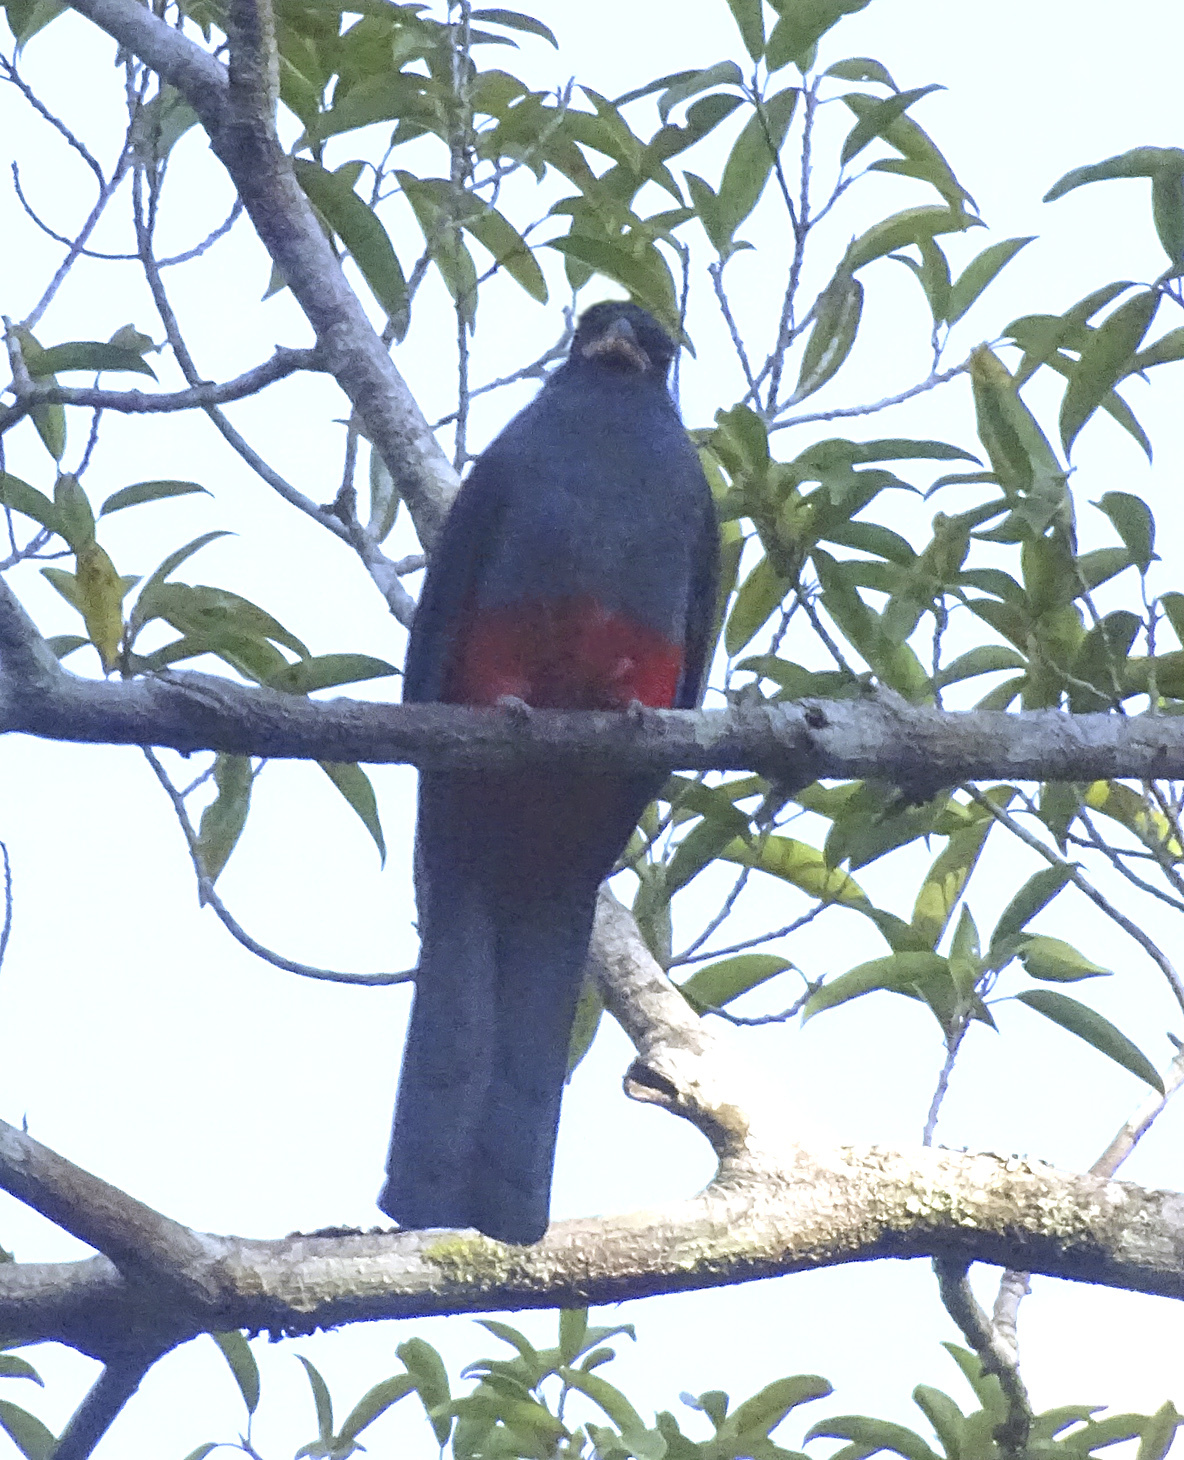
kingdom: Animalia
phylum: Chordata
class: Aves
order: Trogoniformes
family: Trogonidae
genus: Trogon
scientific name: Trogon massena
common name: Slaty-tailed trogon
